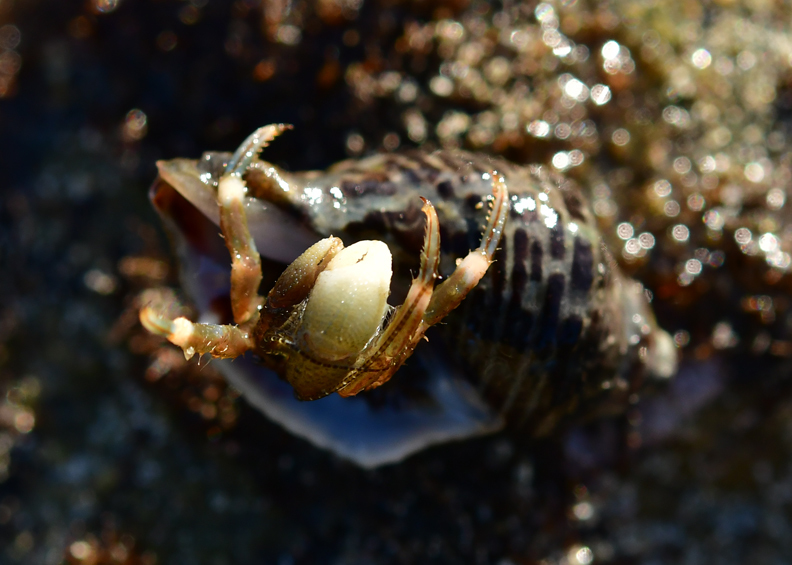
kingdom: Animalia
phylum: Arthropoda
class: Malacostraca
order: Decapoda
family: Paguridae
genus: Pagurus
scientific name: Pagurus venturensis
